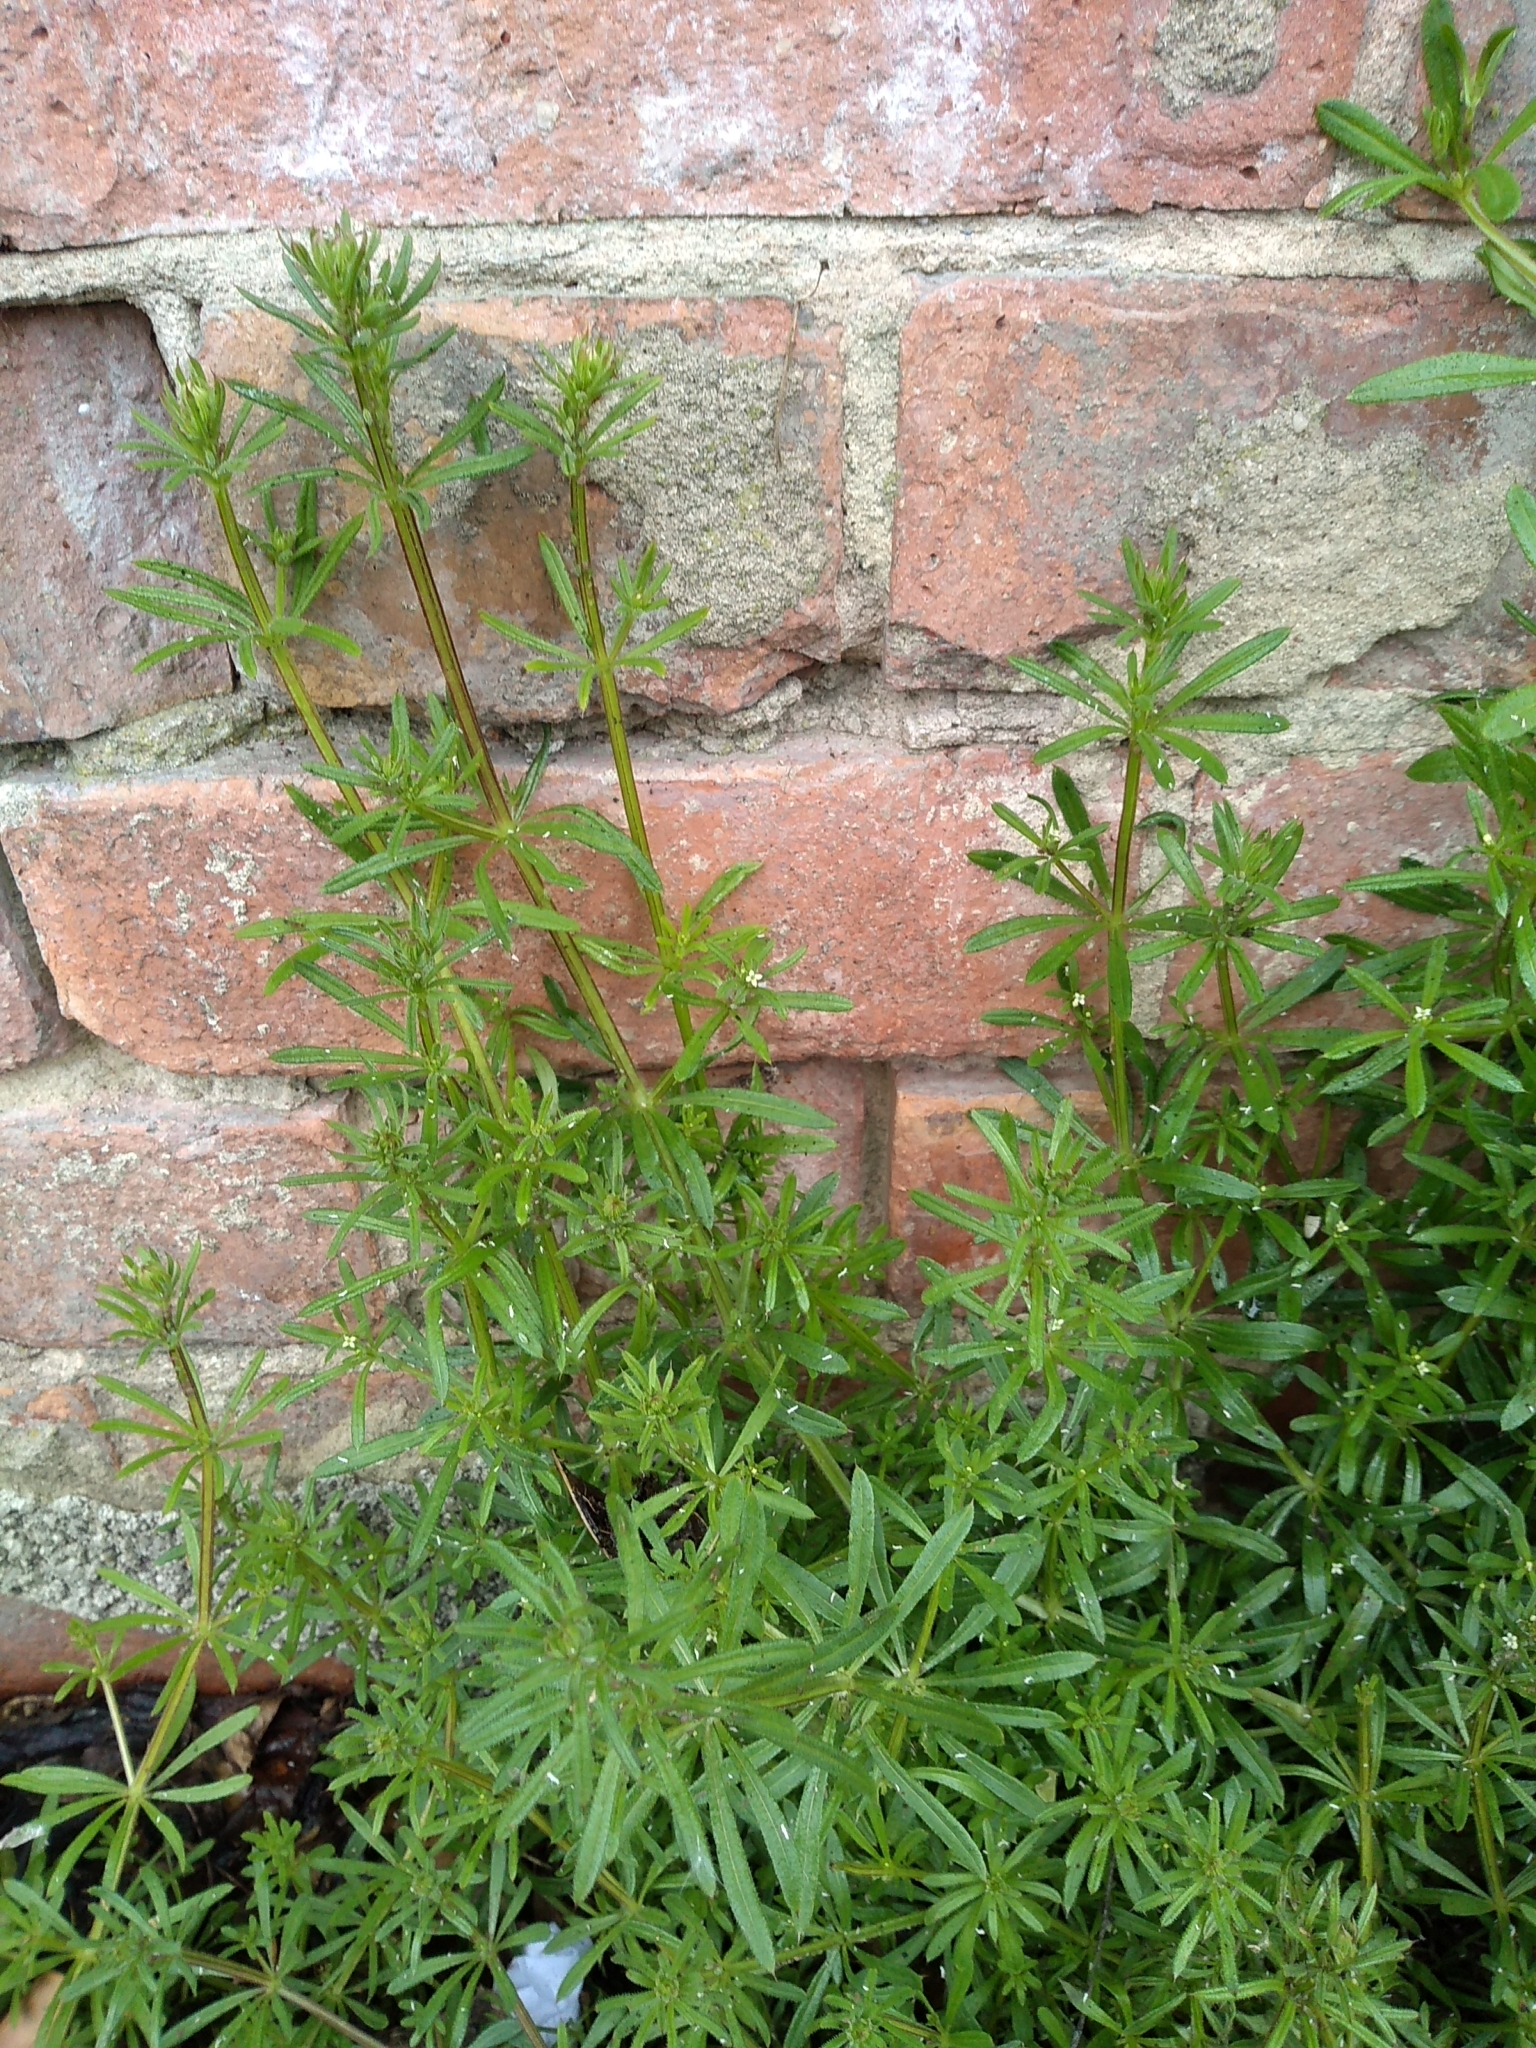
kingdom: Plantae
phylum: Tracheophyta
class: Magnoliopsida
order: Gentianales
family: Rubiaceae
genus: Galium
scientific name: Galium aparine
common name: Cleavers
